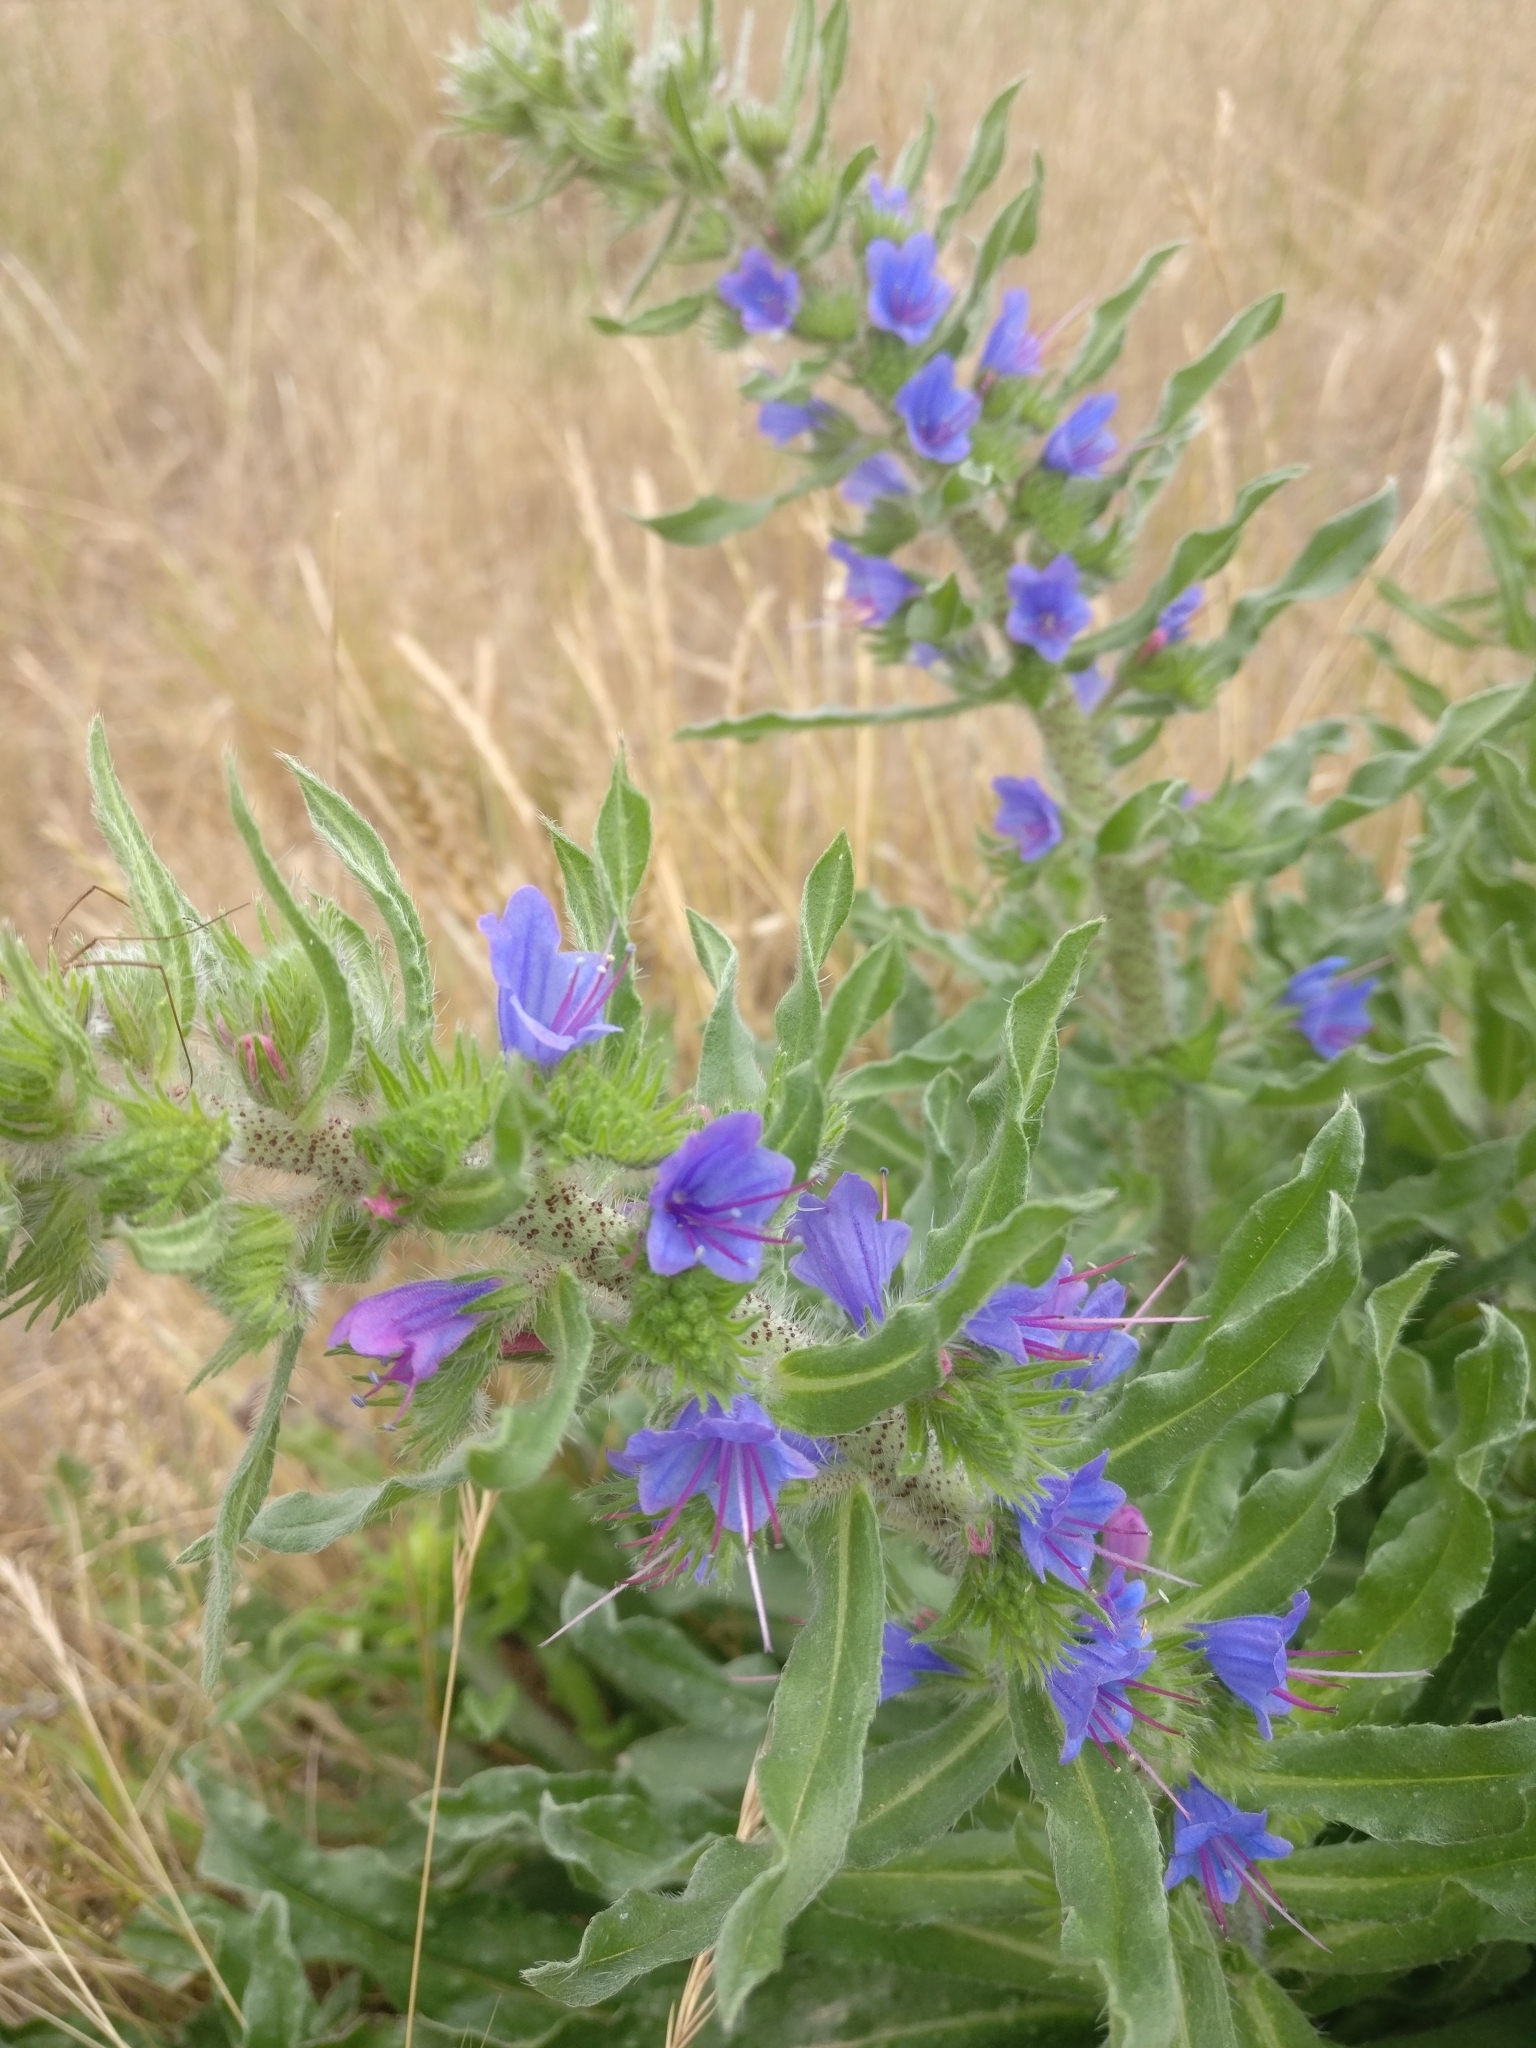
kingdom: Plantae
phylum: Tracheophyta
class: Magnoliopsida
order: Boraginales
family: Boraginaceae
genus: Echium
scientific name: Echium vulgare
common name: Common viper's bugloss
